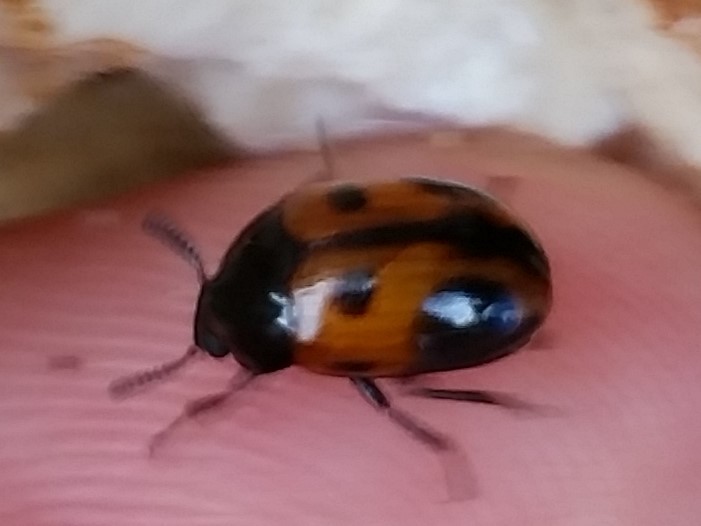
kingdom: Animalia
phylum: Arthropoda
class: Insecta
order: Coleoptera
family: Tenebrionidae
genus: Diaperis
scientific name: Diaperis maculata
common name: Darkling beetle
